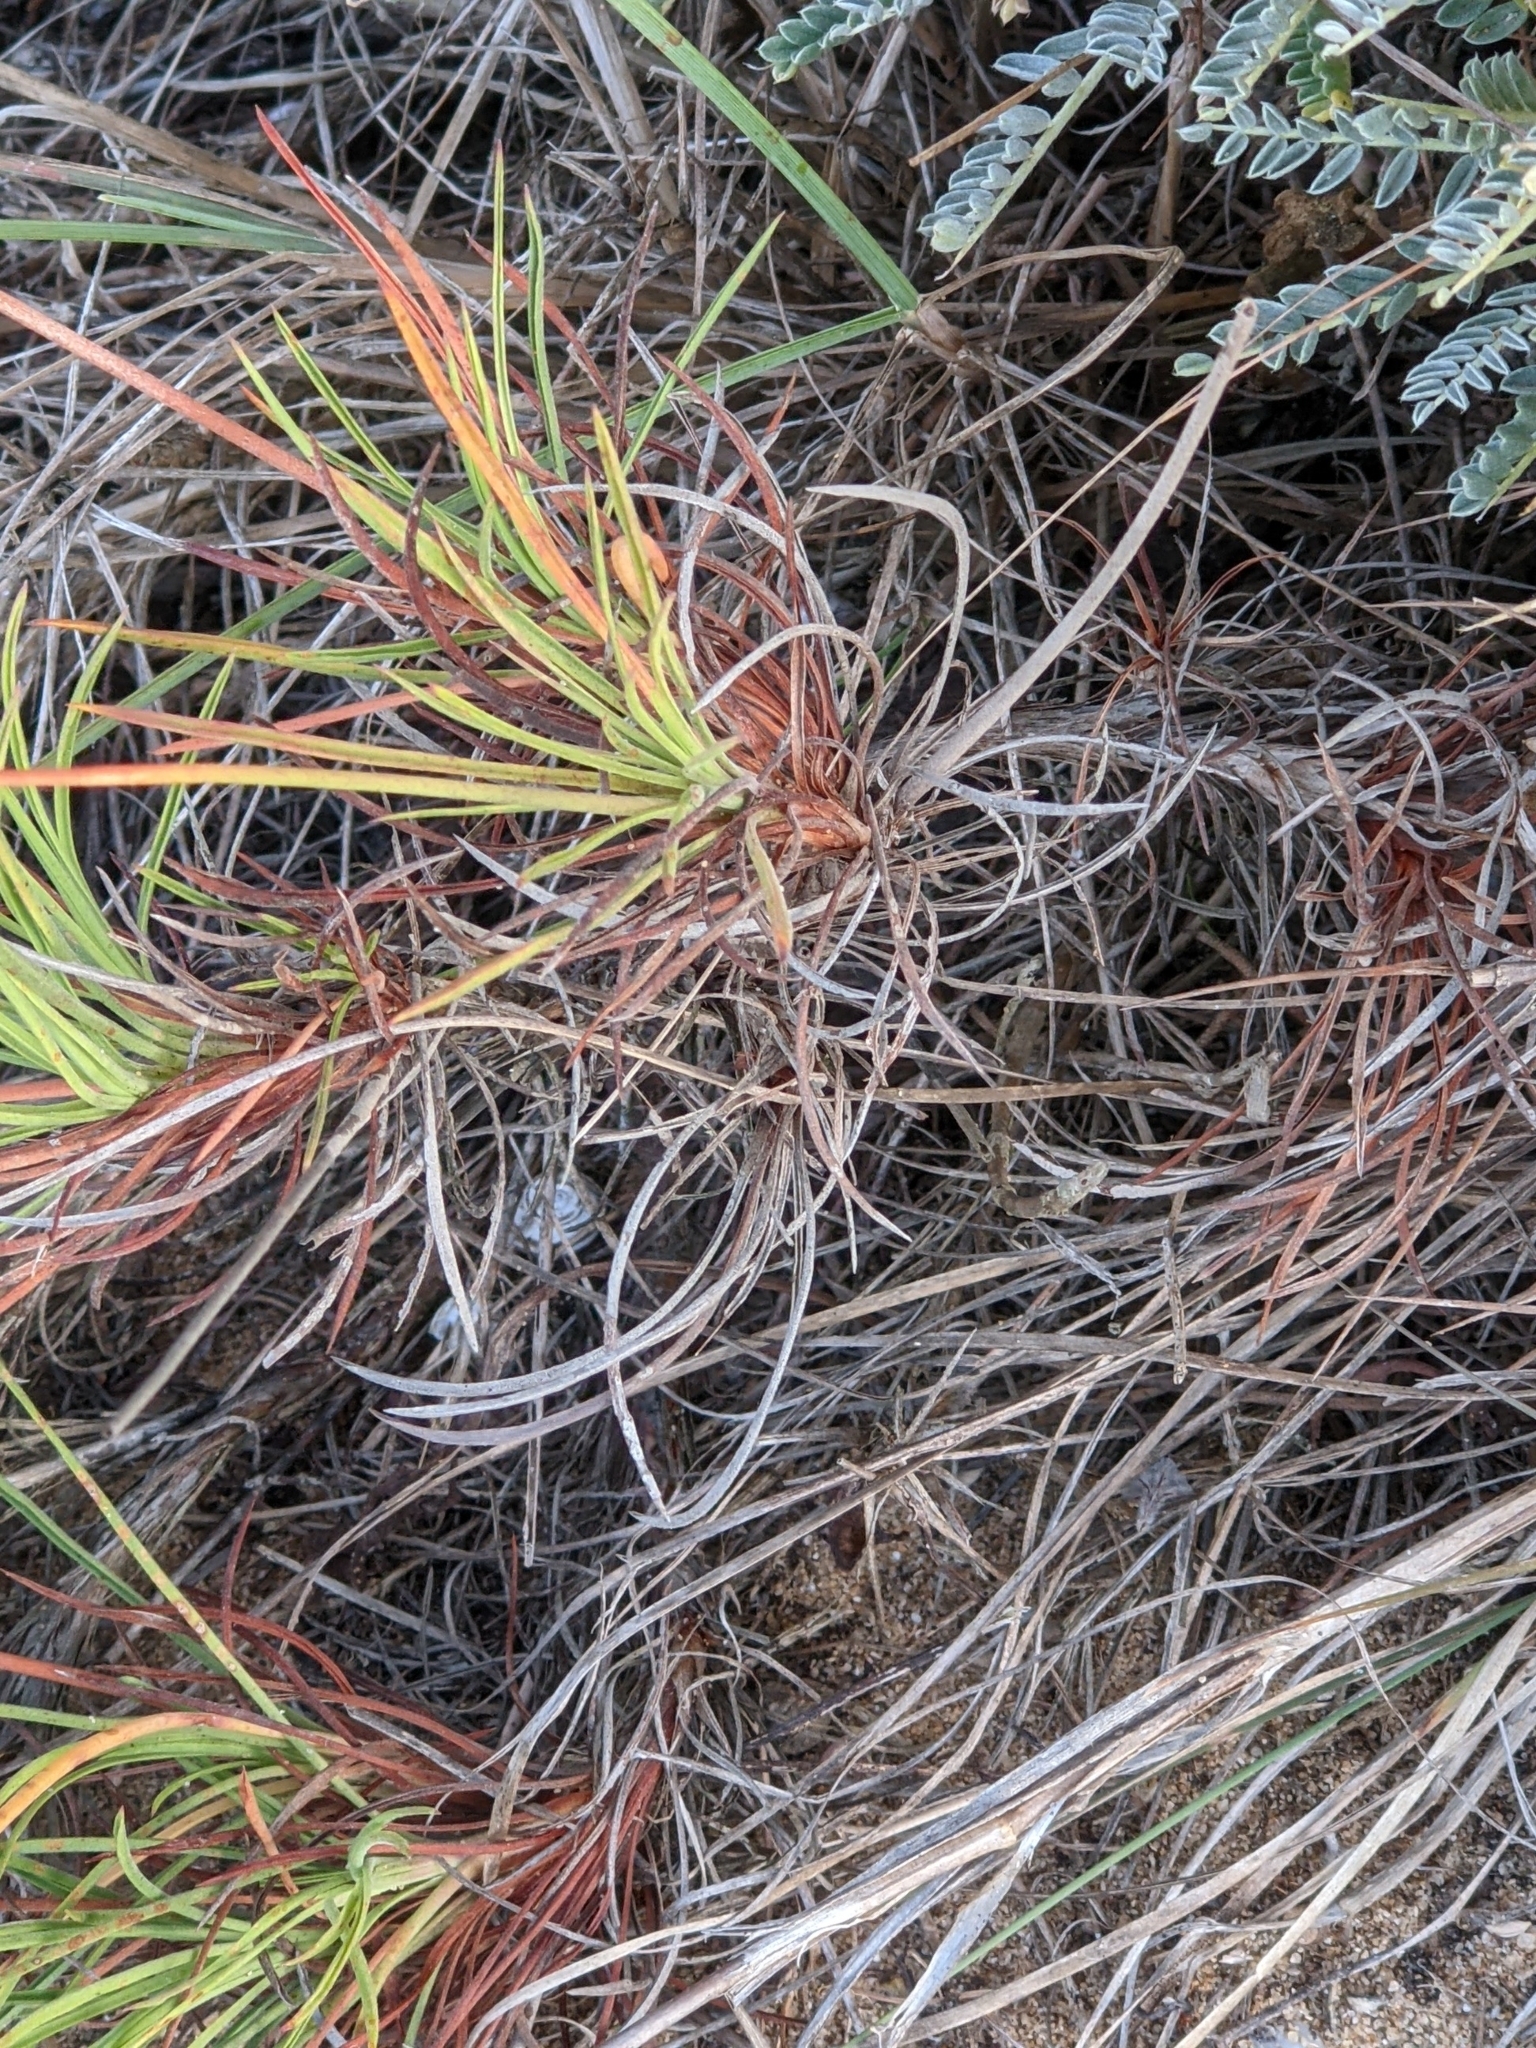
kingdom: Plantae
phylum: Tracheophyta
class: Magnoliopsida
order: Caryophyllales
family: Plumbaginaceae
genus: Armeria
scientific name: Armeria pungens
